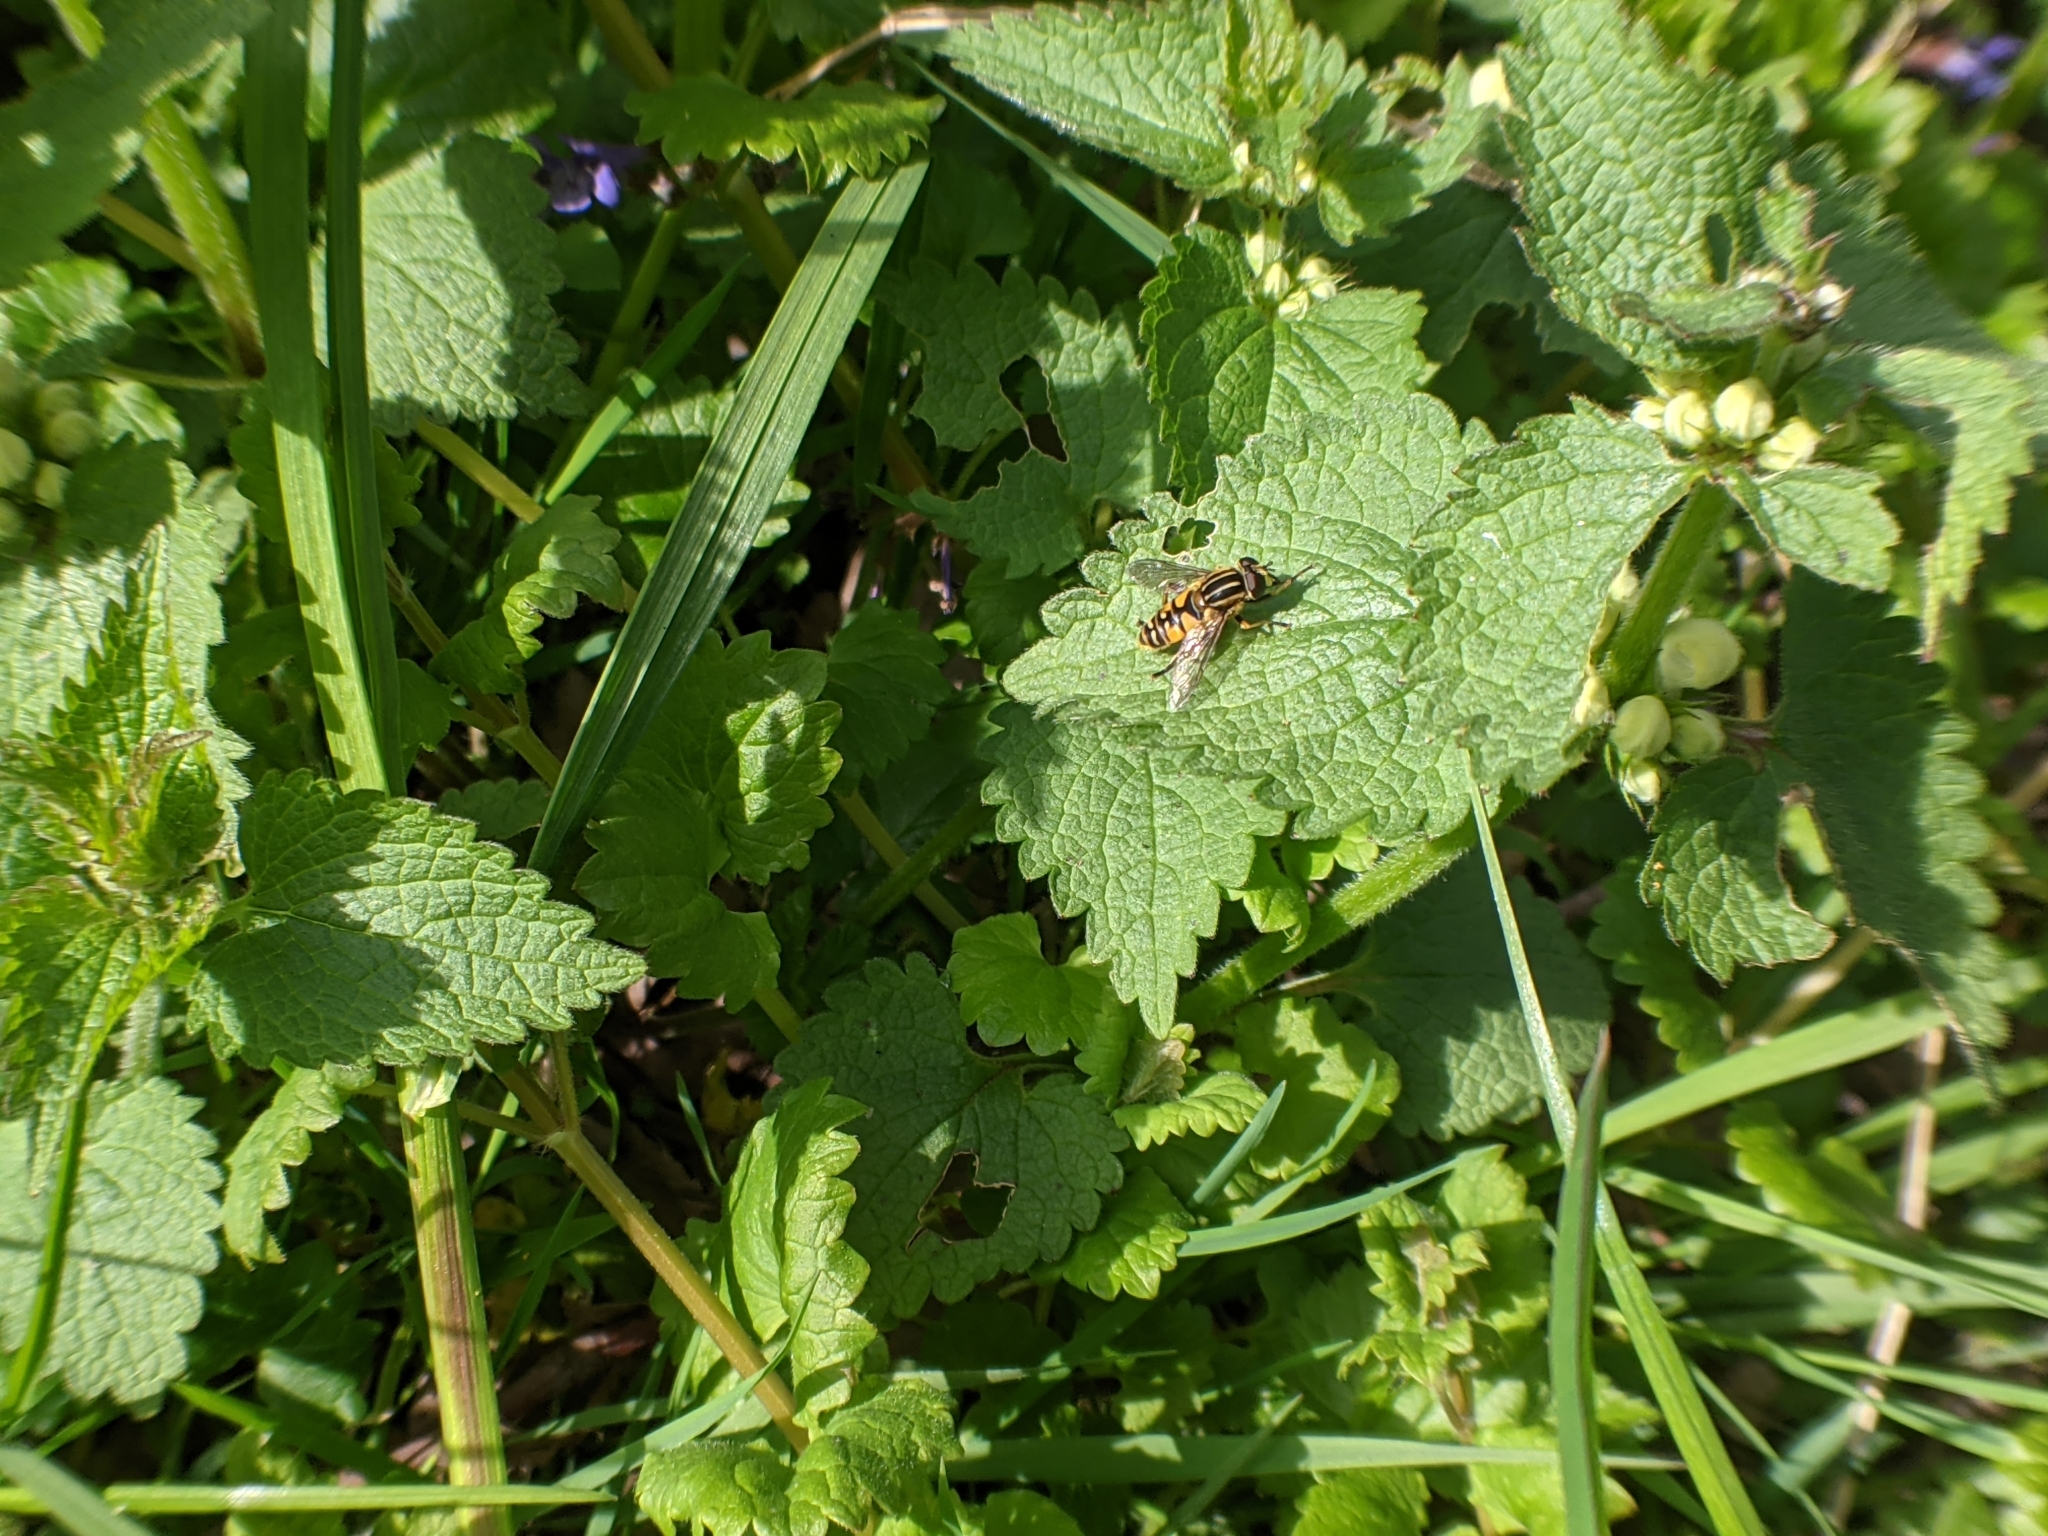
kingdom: Animalia
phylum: Arthropoda
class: Insecta
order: Diptera
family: Syrphidae
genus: Helophilus
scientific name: Helophilus pendulus
